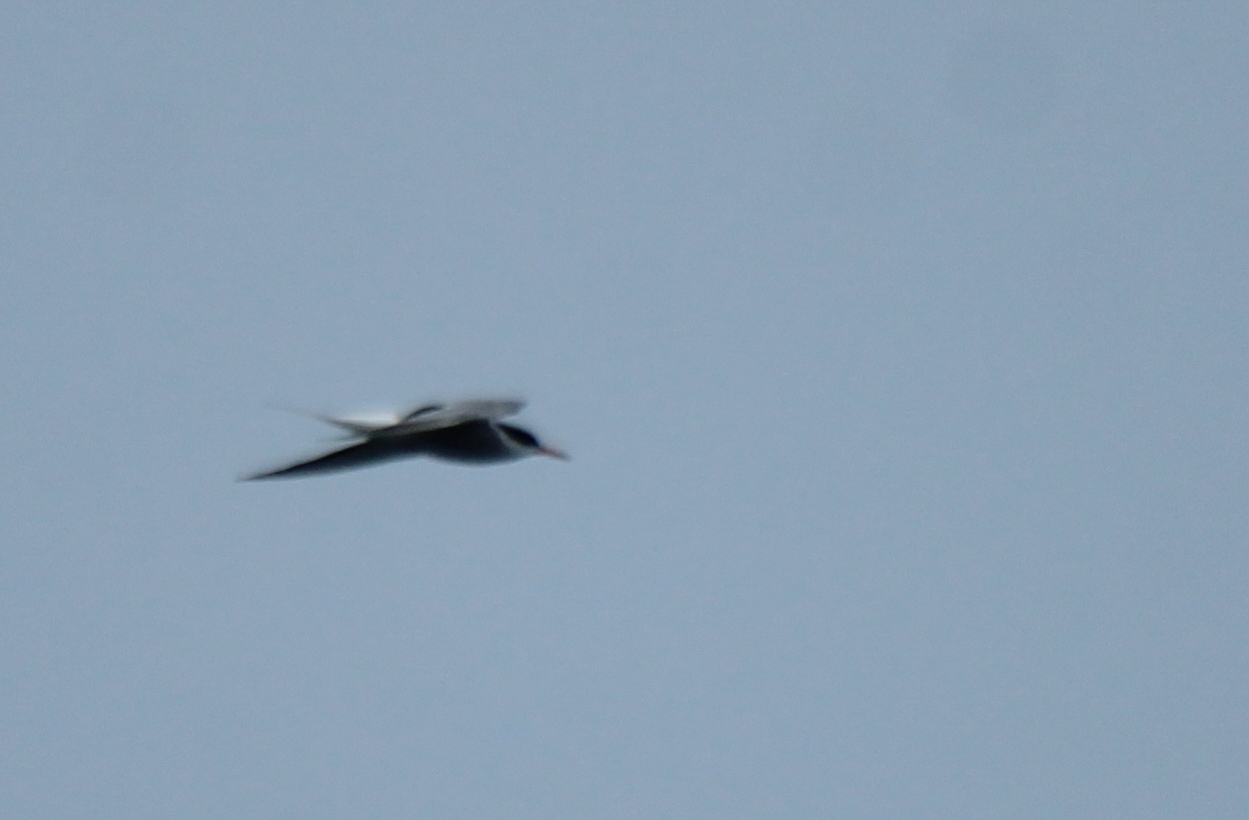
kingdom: Animalia
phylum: Chordata
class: Aves
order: Charadriiformes
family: Laridae
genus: Sterna
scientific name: Sterna hirundo
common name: Common tern
